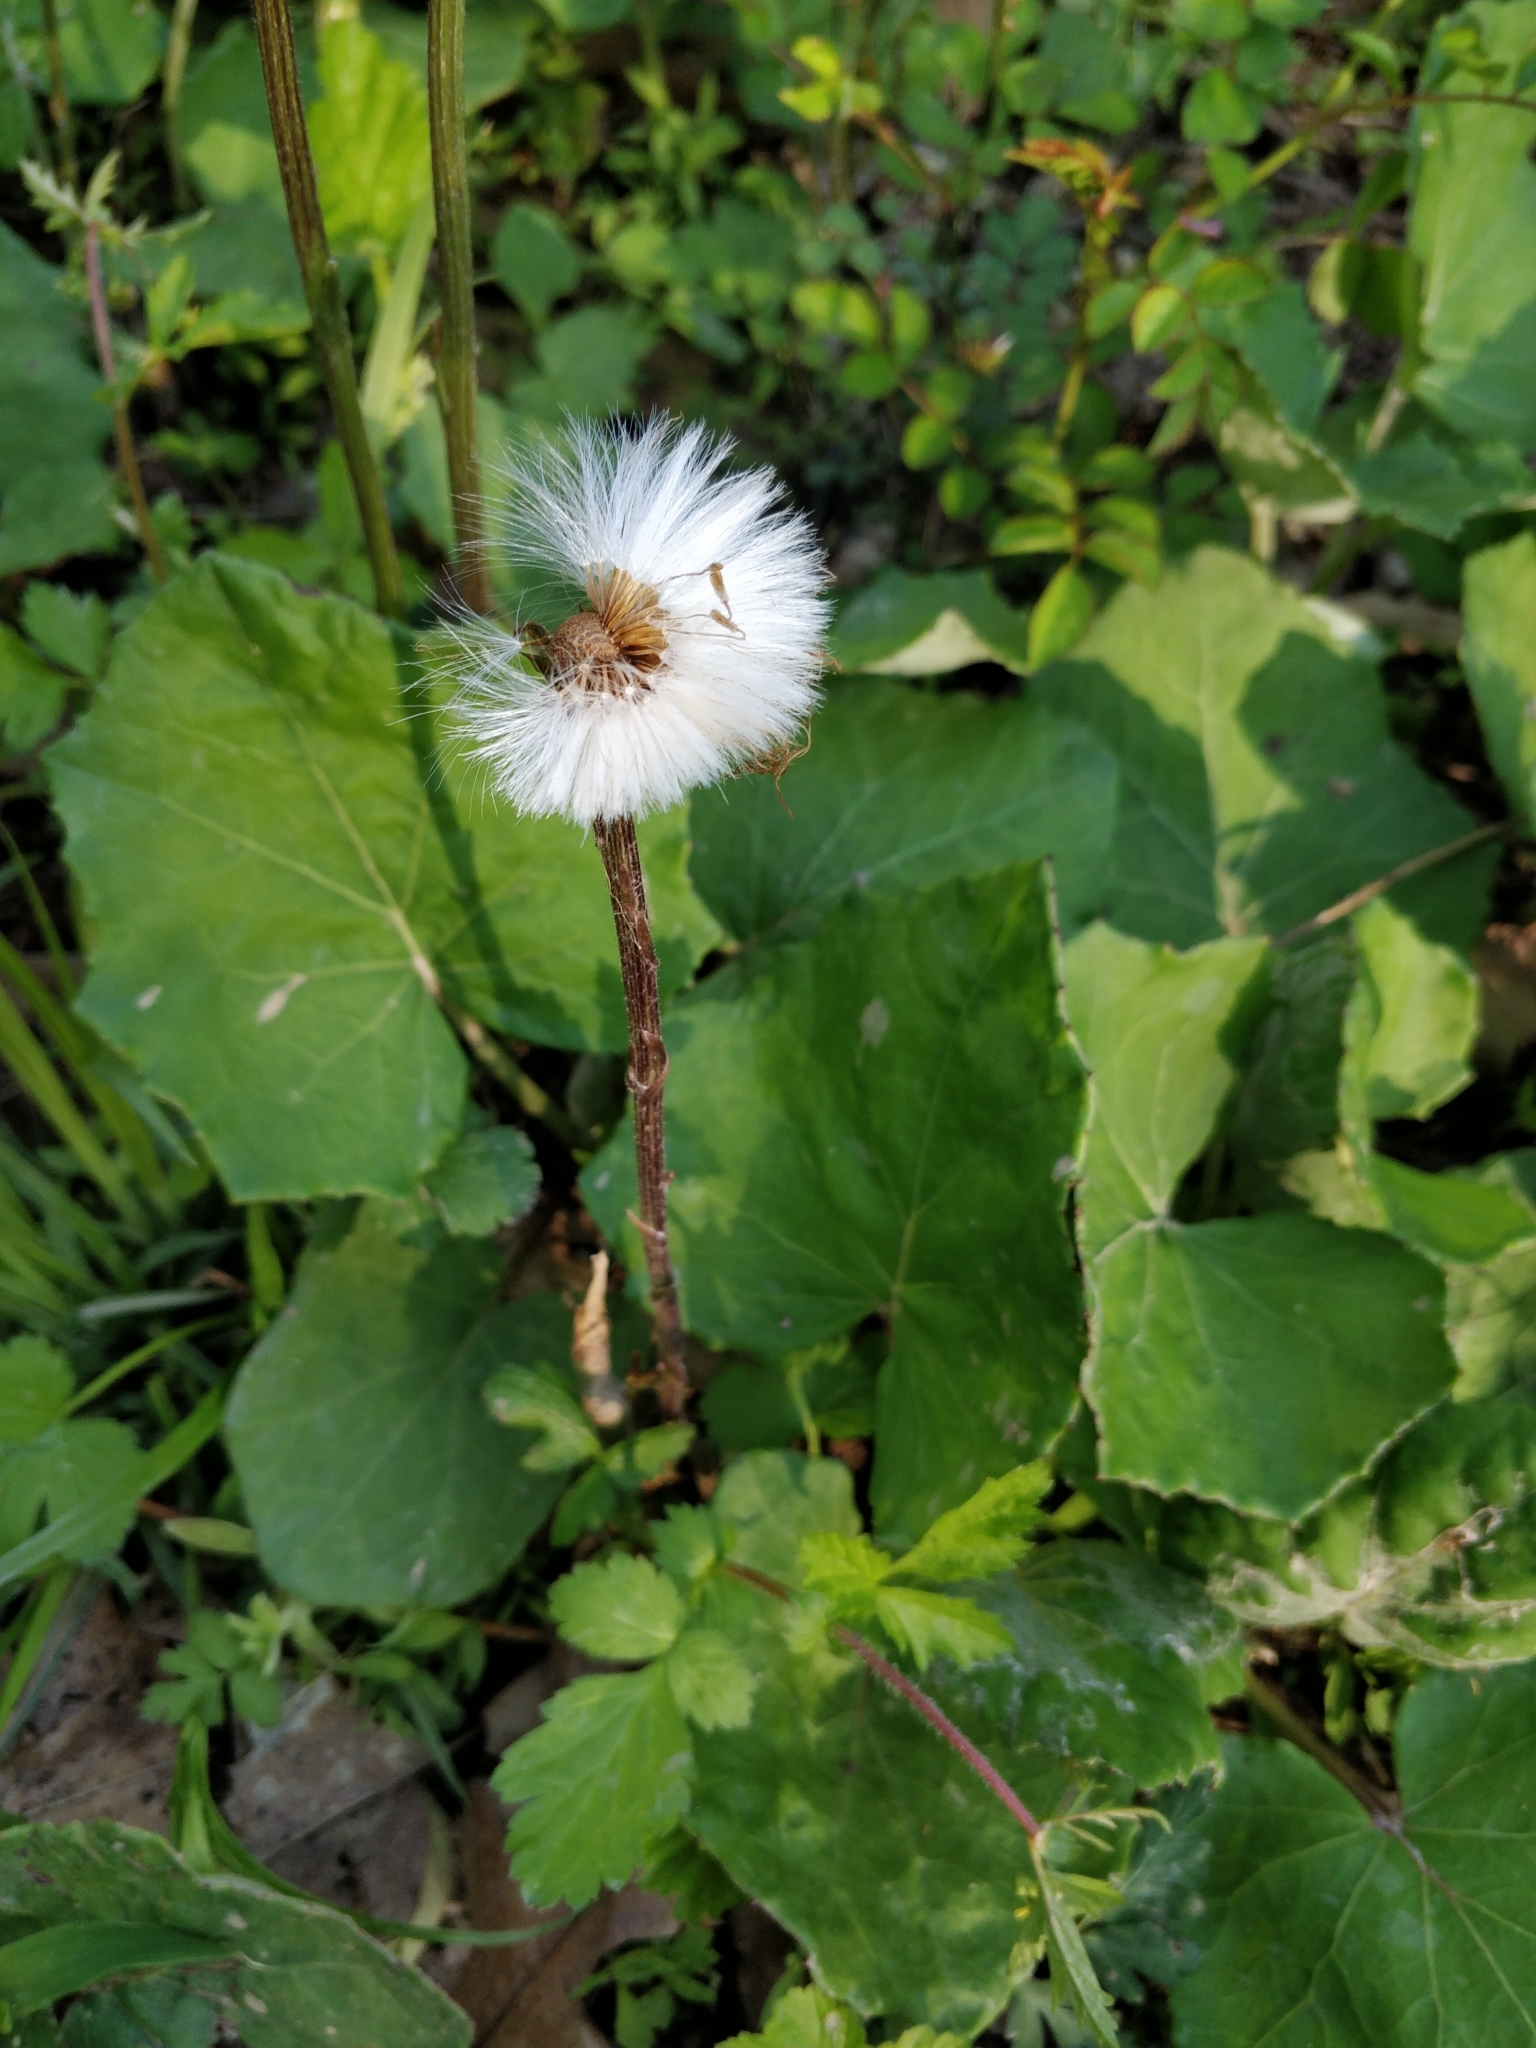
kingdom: Plantae
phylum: Tracheophyta
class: Magnoliopsida
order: Asterales
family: Asteraceae
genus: Tussilago
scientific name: Tussilago farfara
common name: Coltsfoot
